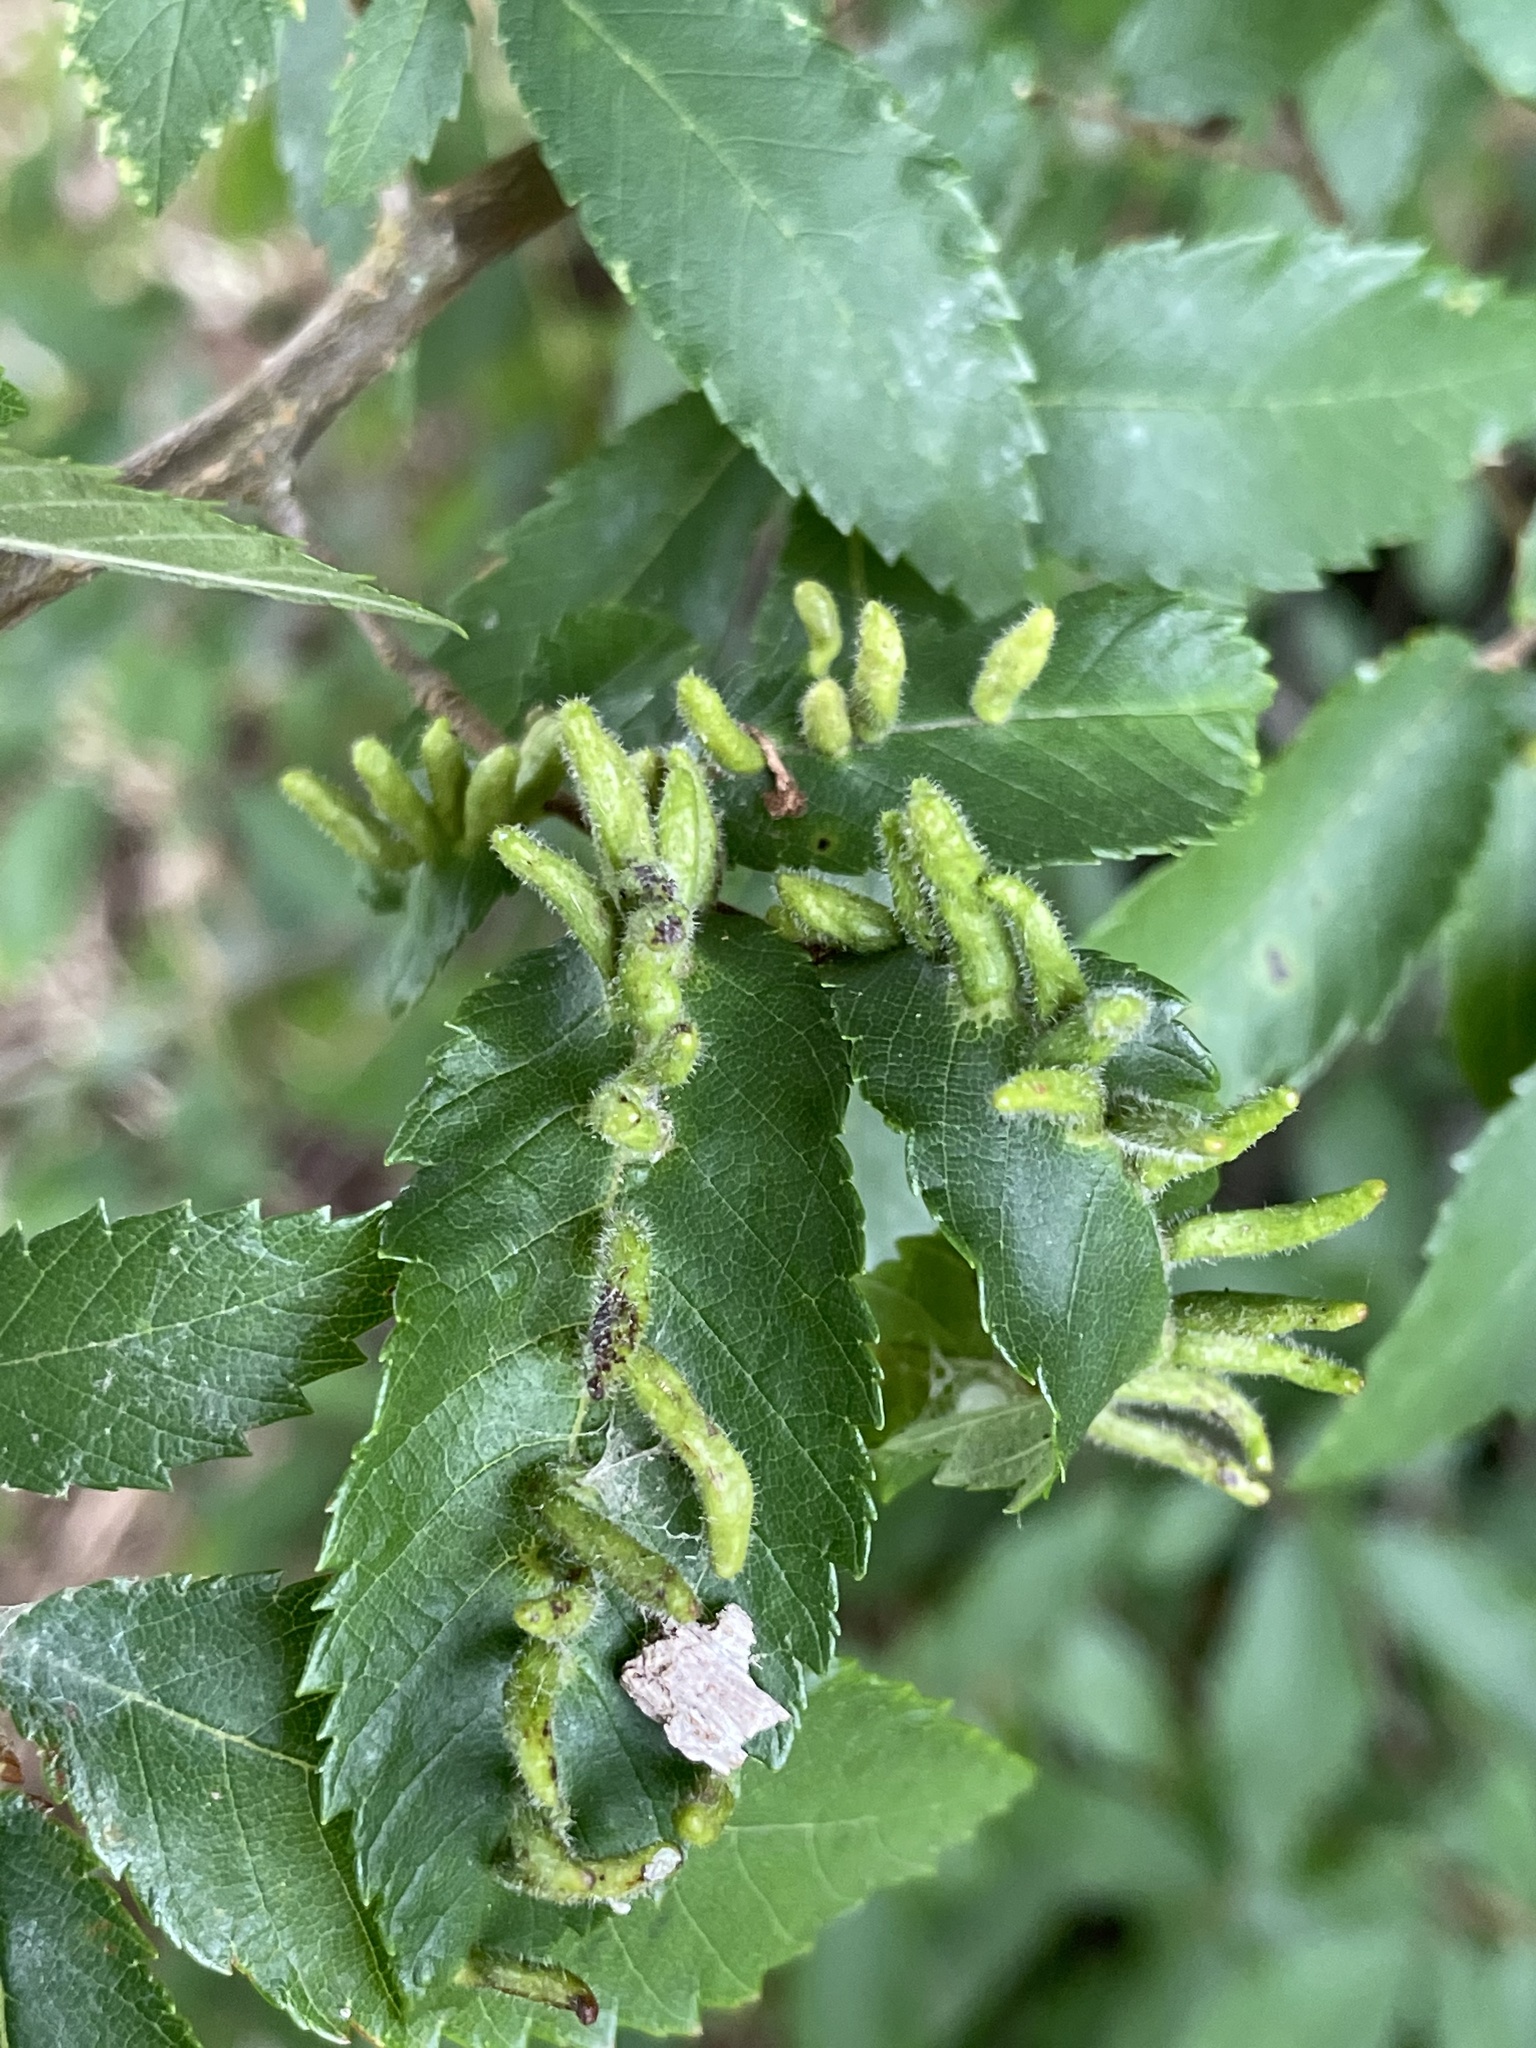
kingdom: Animalia
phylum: Arthropoda
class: Arachnida
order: Trombidiformes
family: Eriophyidae
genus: Aceria
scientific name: Aceria
